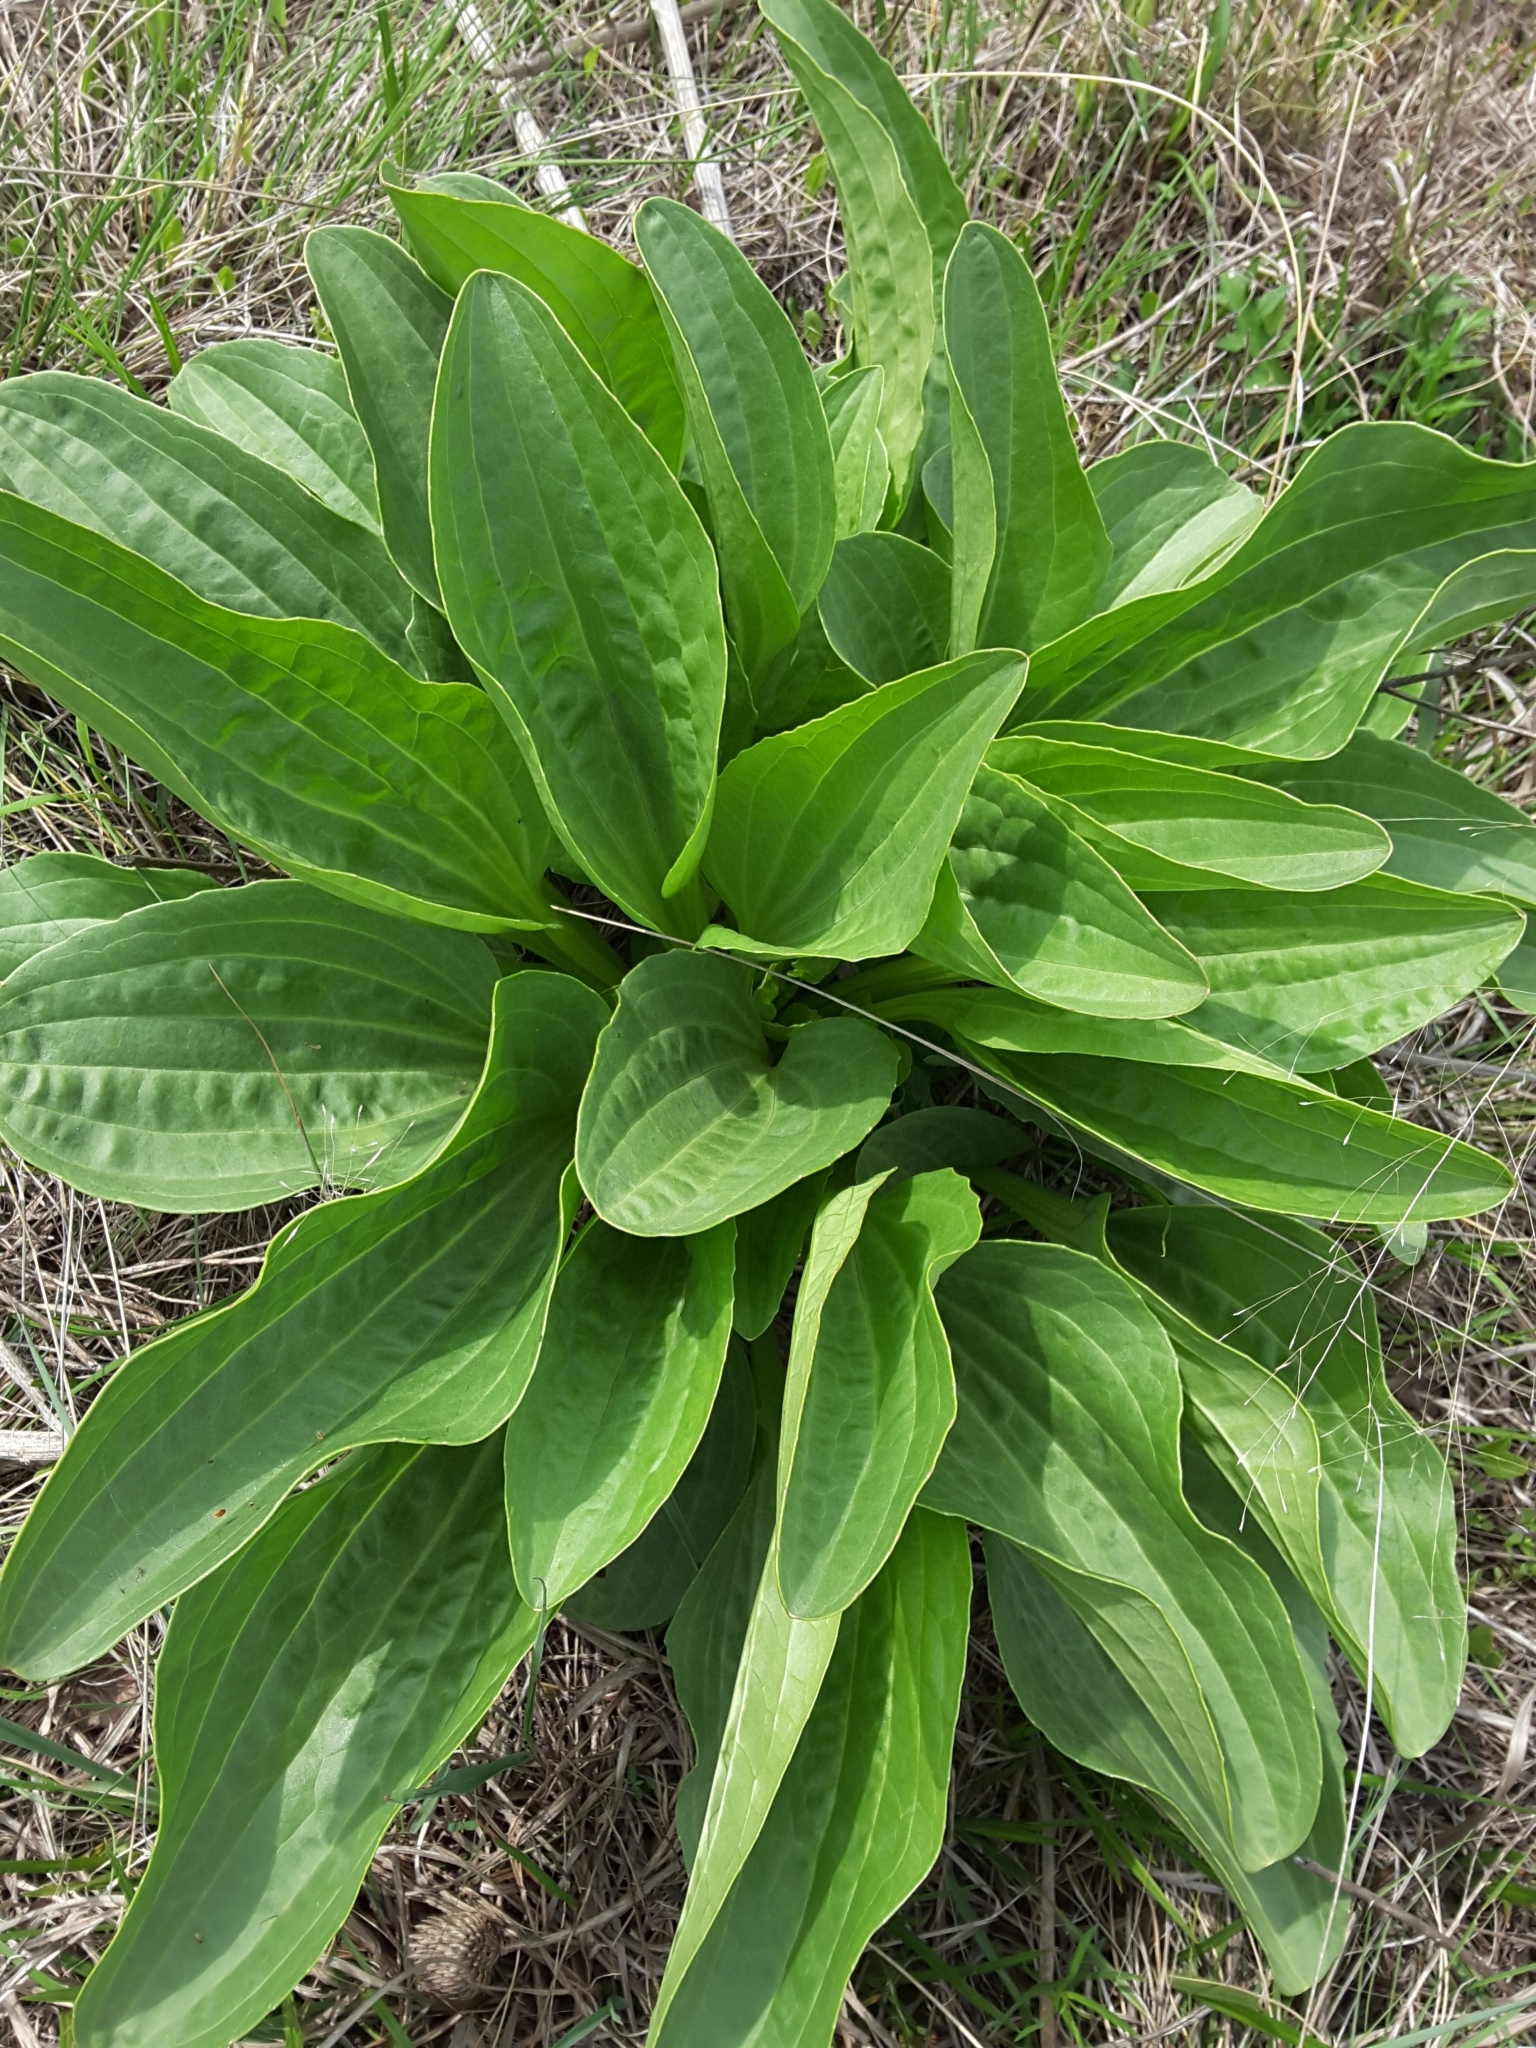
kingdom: Plantae
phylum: Tracheophyta
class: Magnoliopsida
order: Asterales
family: Asteraceae
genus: Arnoglossum
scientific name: Arnoglossum plantagineum
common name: Groove-stemmed indian-plantain
